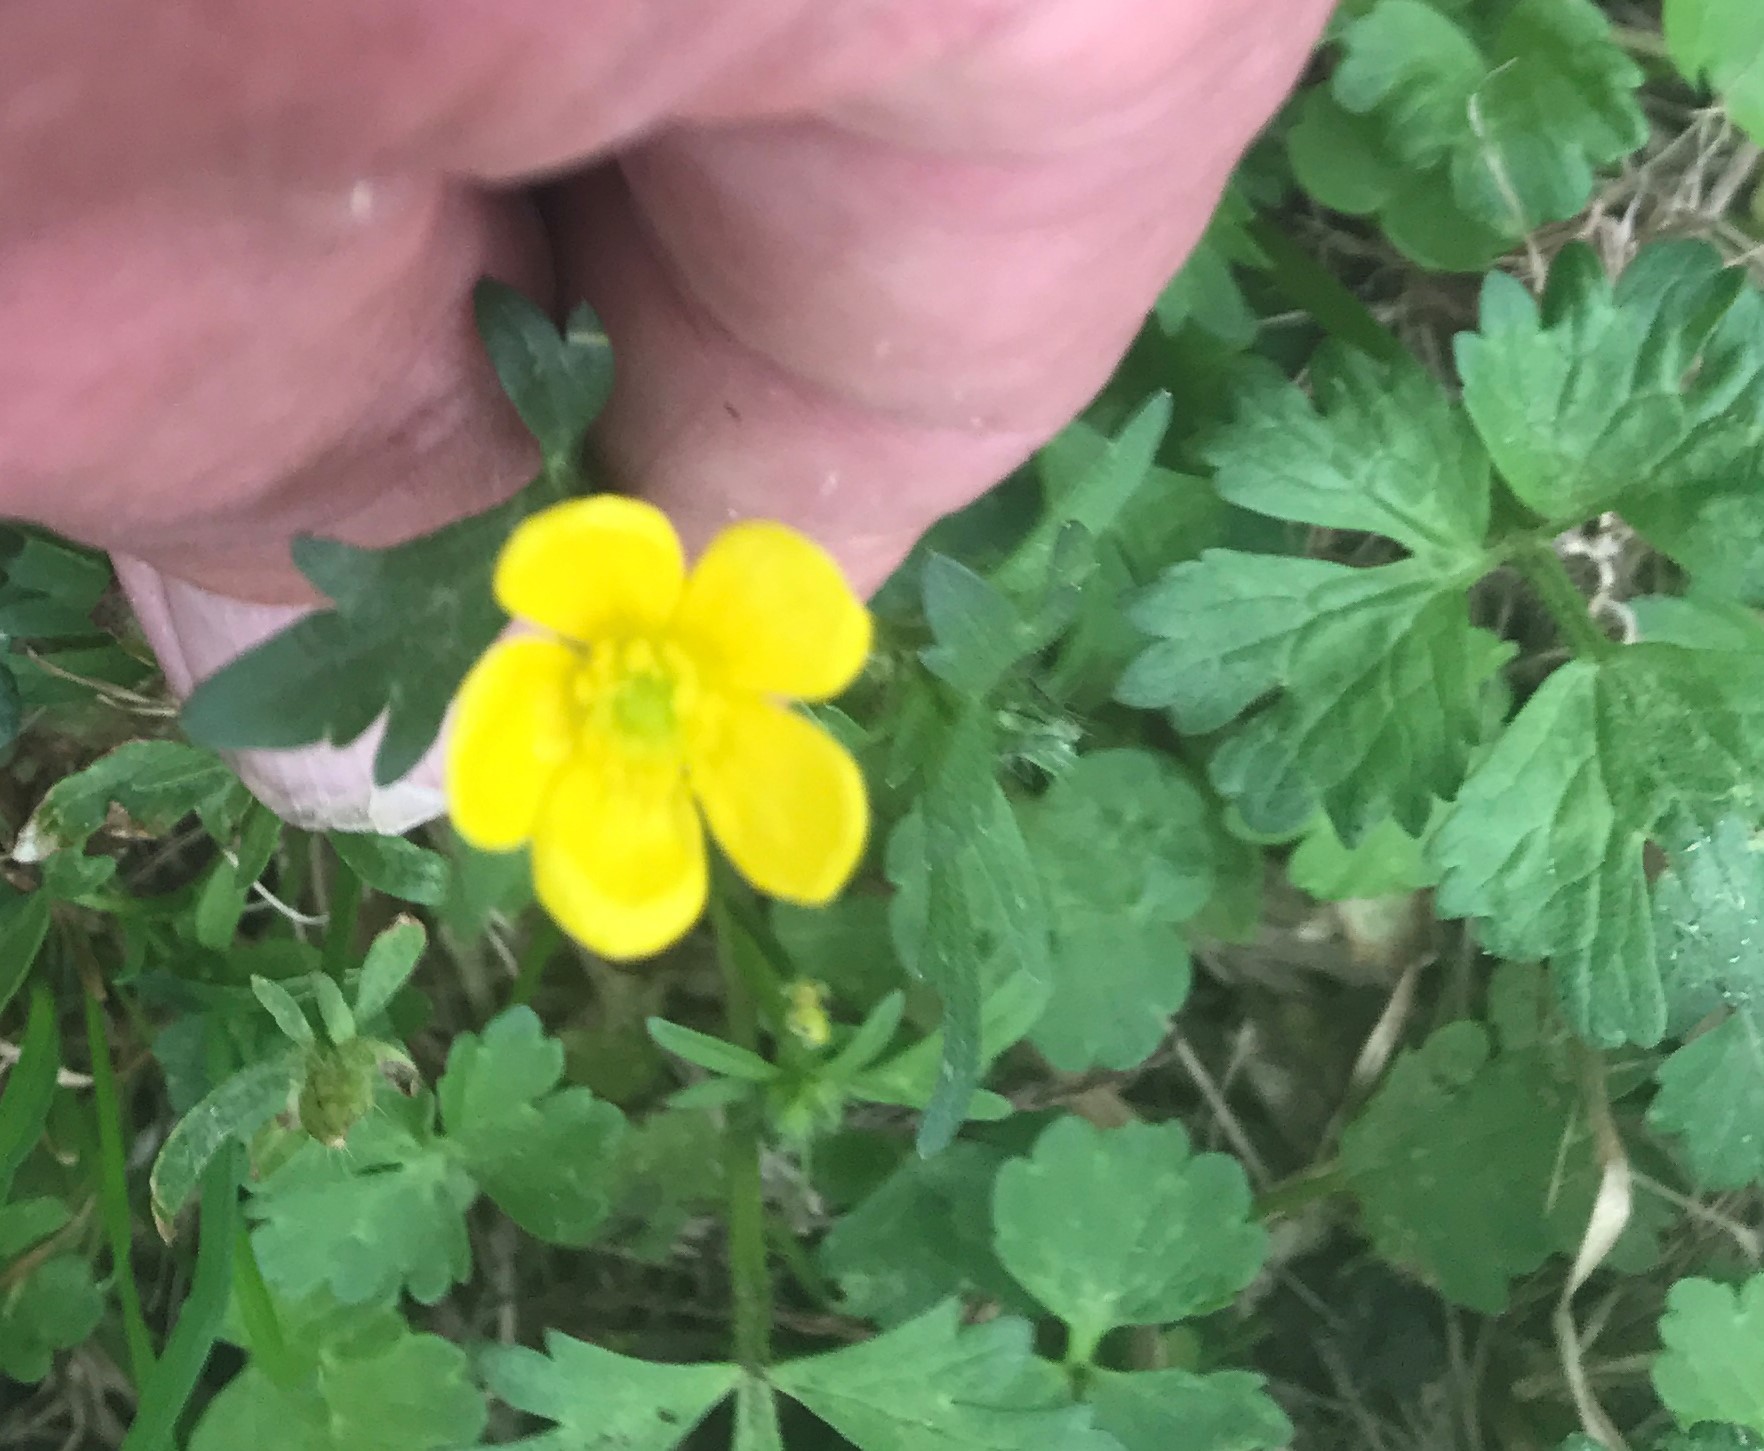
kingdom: Plantae
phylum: Tracheophyta
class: Magnoliopsida
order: Ranunculales
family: Ranunculaceae
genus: Ranunculus
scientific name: Ranunculus repens
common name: Creeping buttercup
